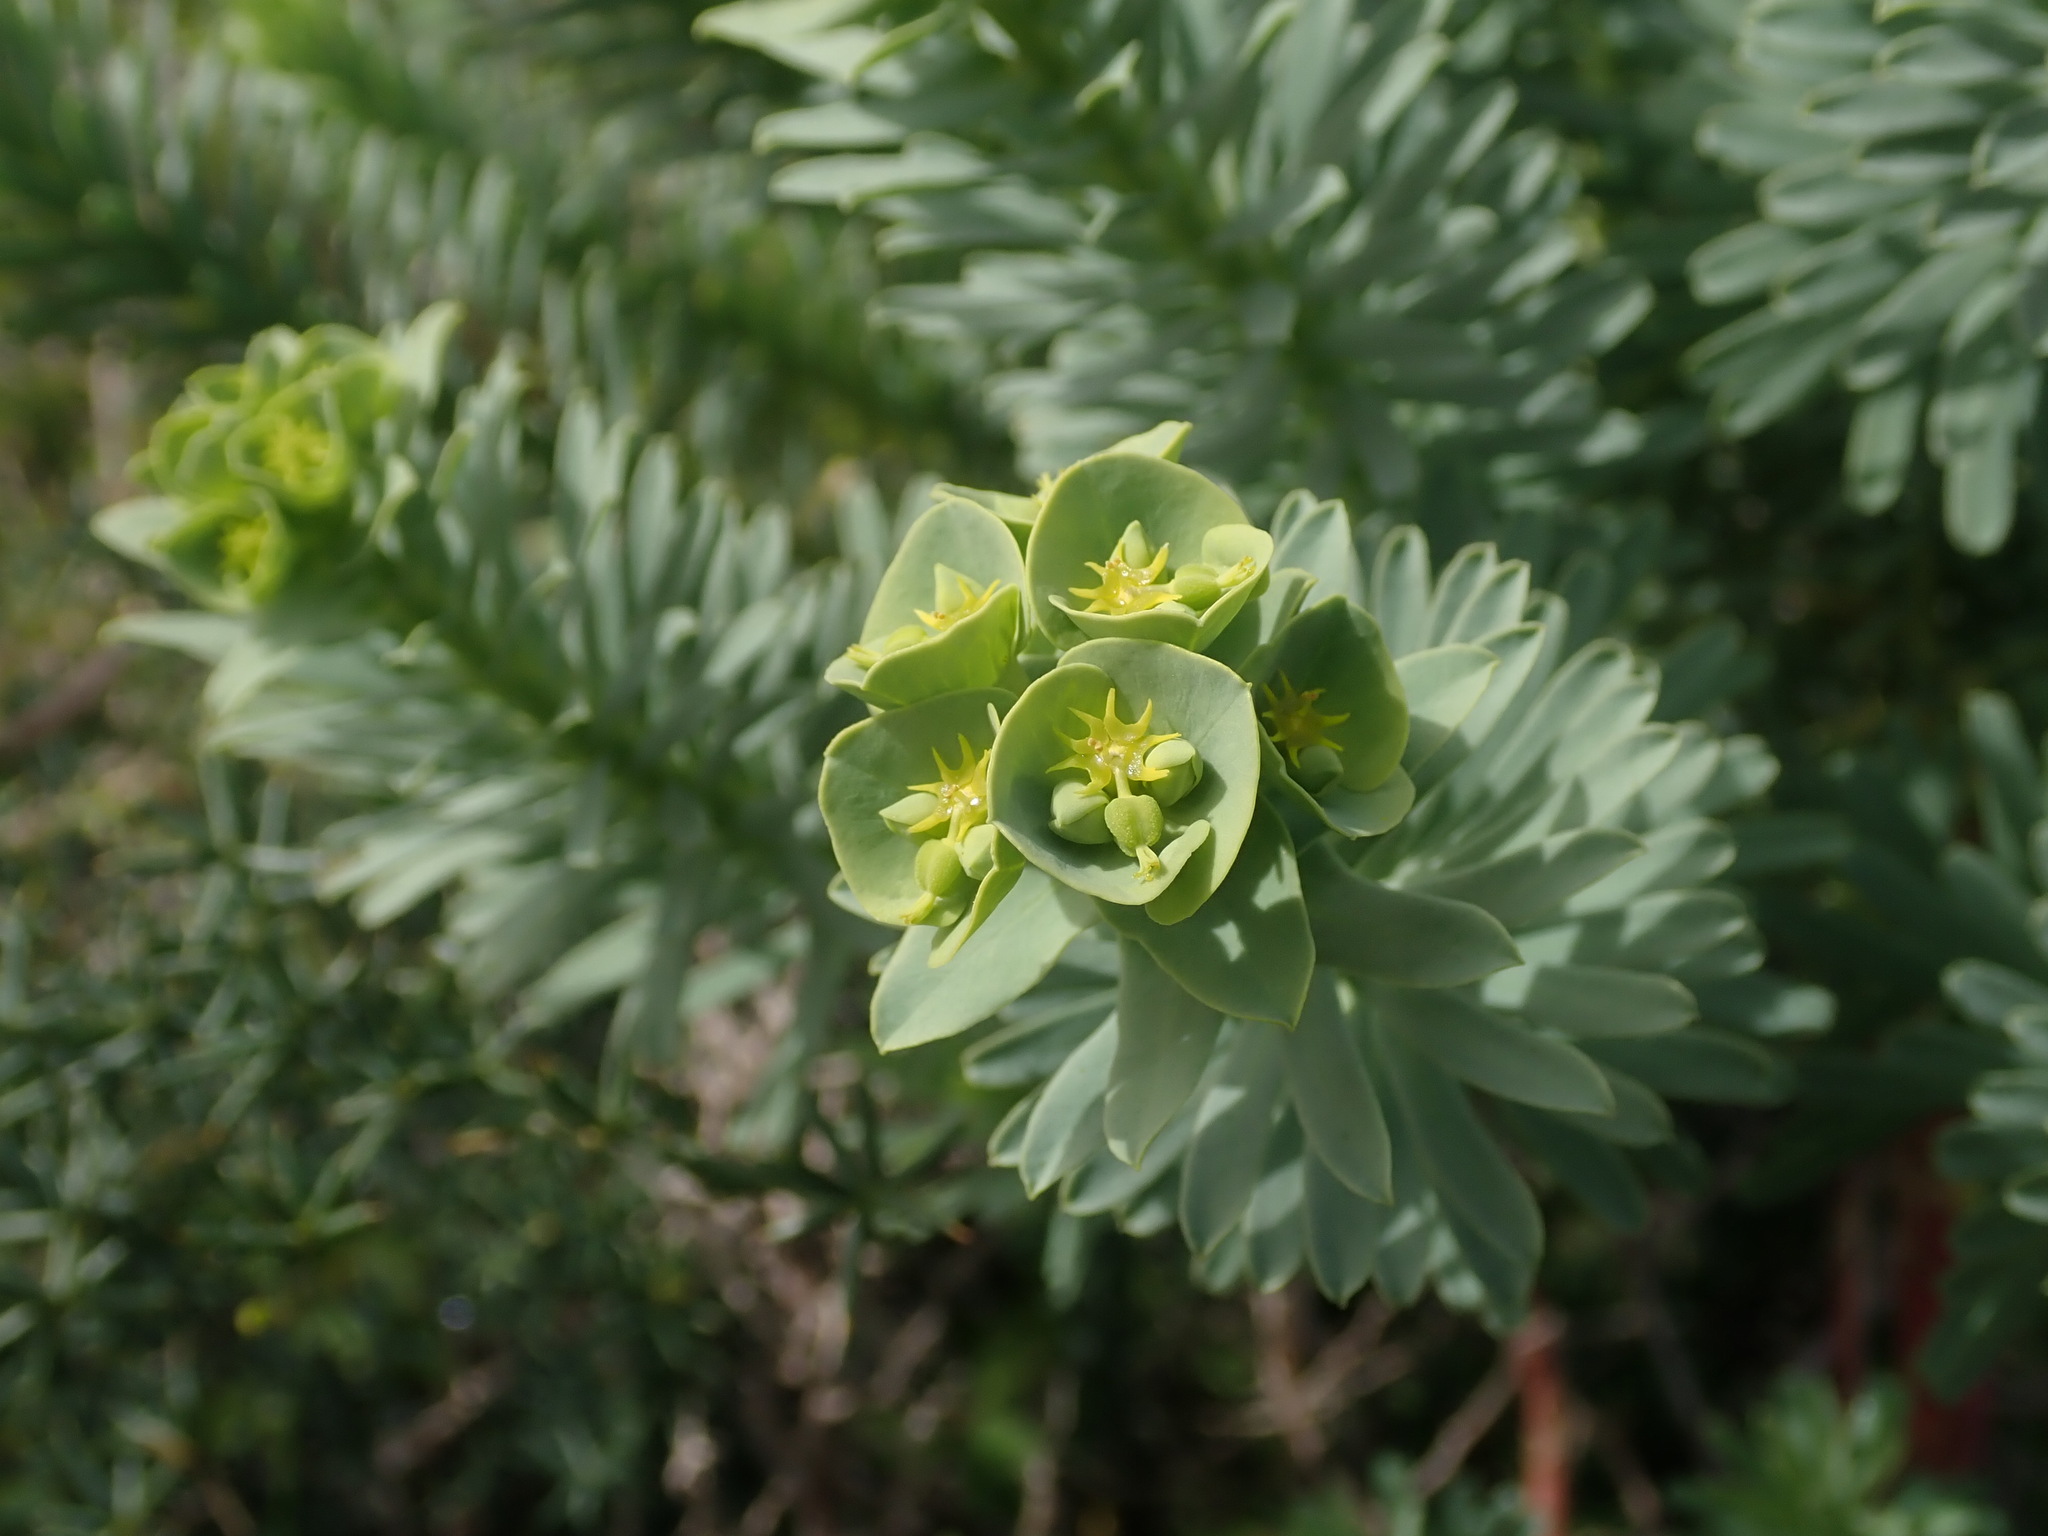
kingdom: Plantae
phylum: Tracheophyta
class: Magnoliopsida
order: Malpighiales
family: Euphorbiaceae
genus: Euphorbia
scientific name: Euphorbia segetalis
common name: Corn spurge
